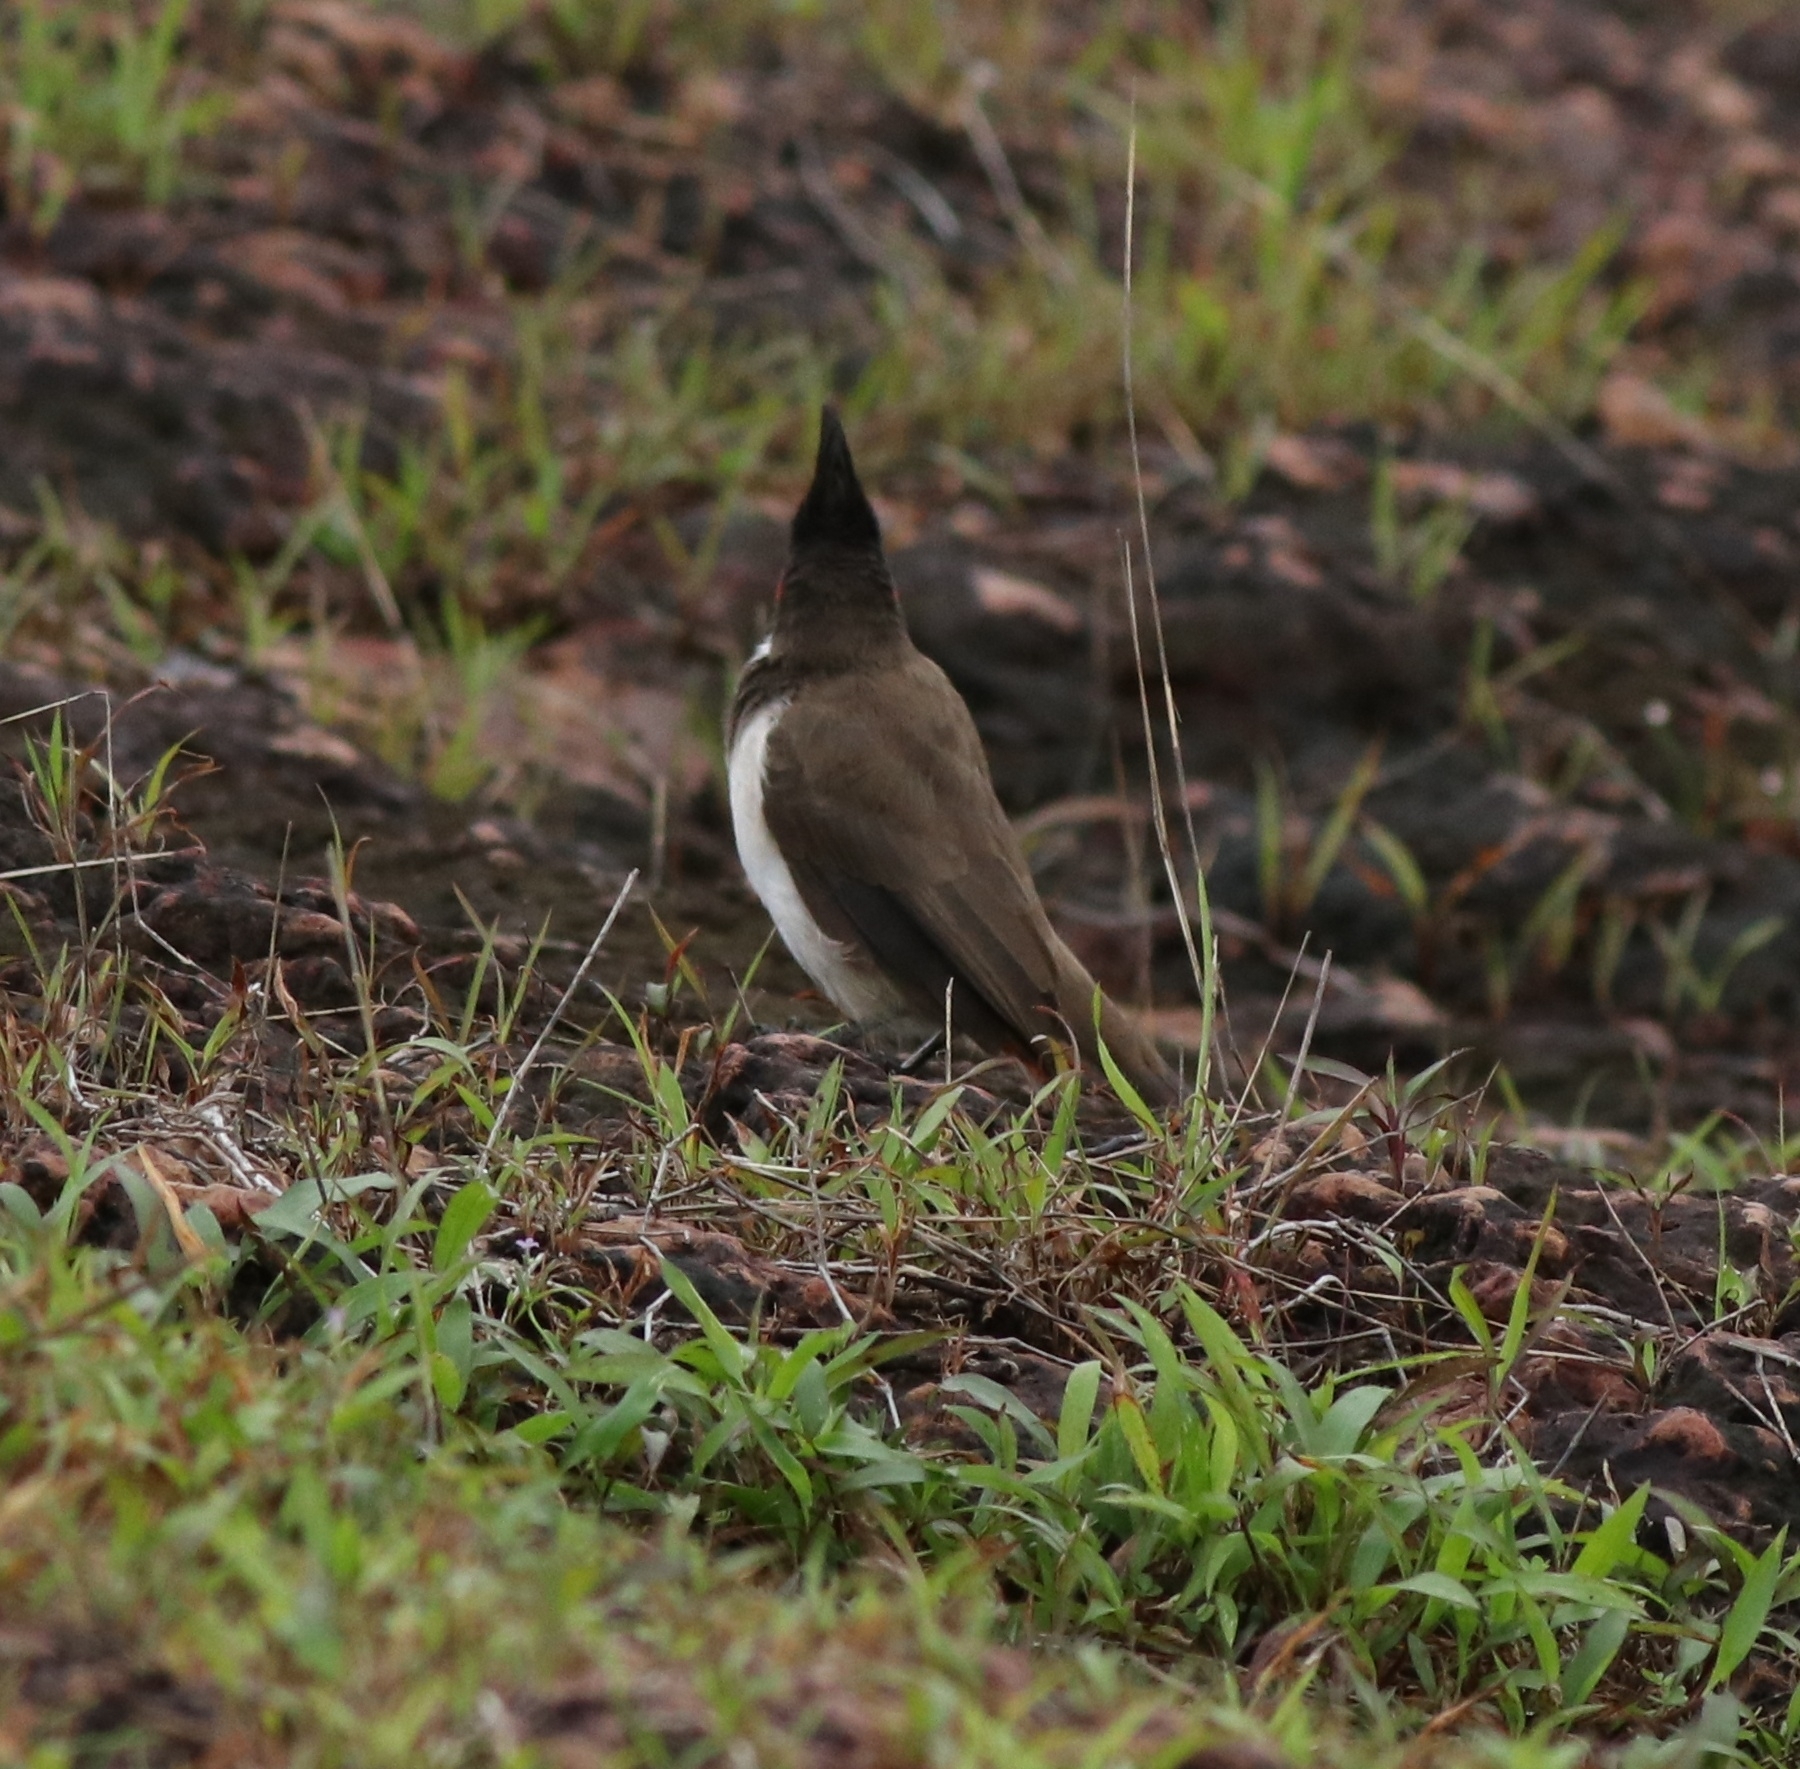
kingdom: Animalia
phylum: Chordata
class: Aves
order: Passeriformes
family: Pycnonotidae
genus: Pycnonotus
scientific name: Pycnonotus jocosus
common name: Red-whiskered bulbul
